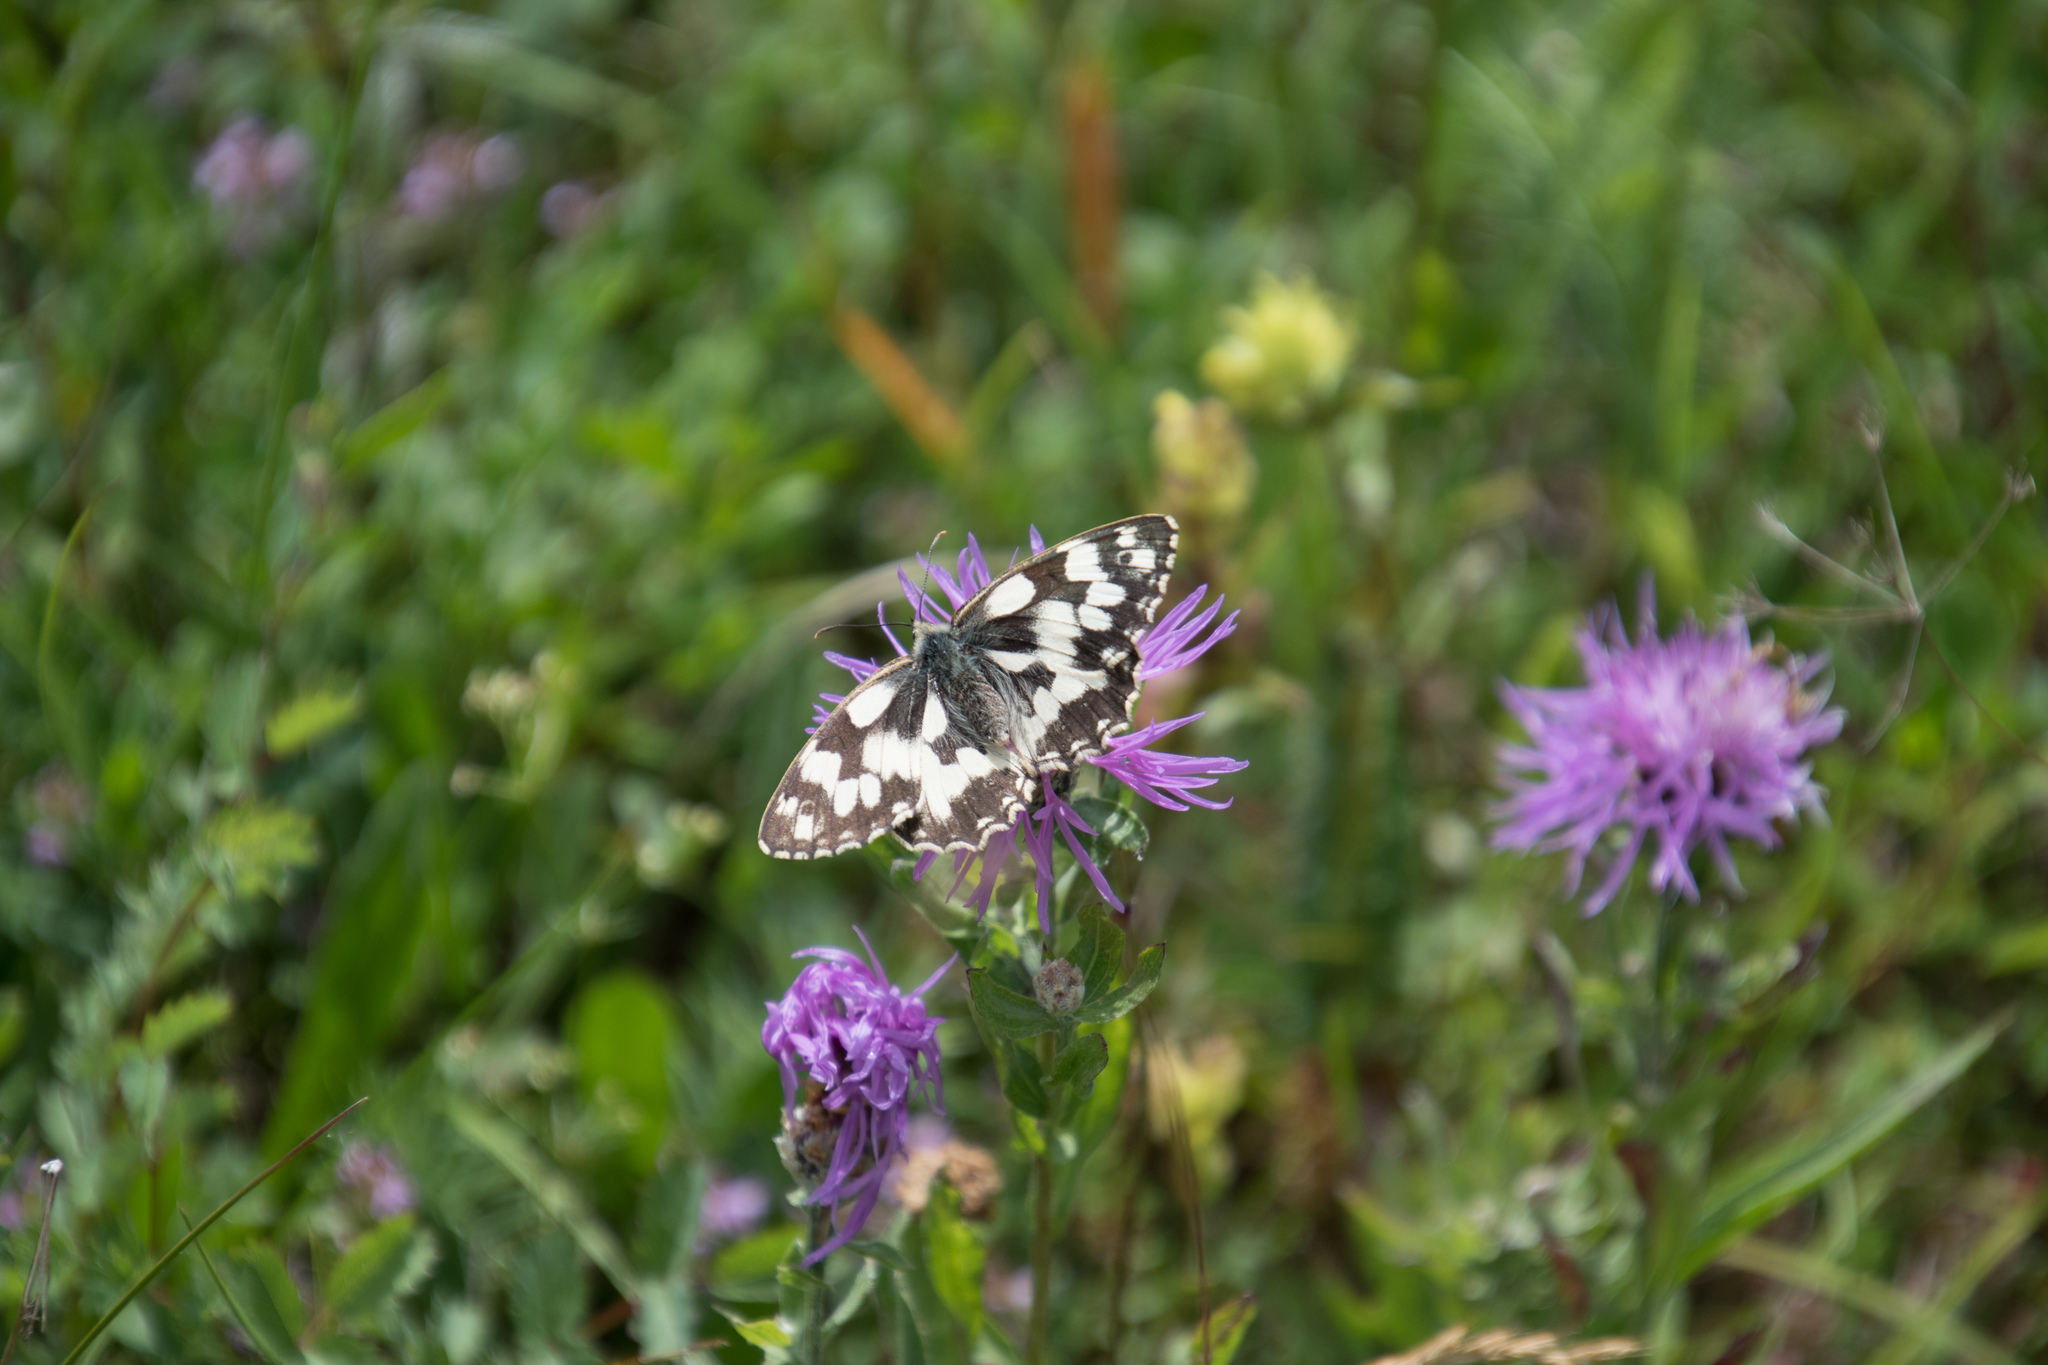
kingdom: Animalia
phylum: Arthropoda
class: Insecta
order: Lepidoptera
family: Nymphalidae
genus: Melanargia
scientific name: Melanargia galathea
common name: Marbled white
